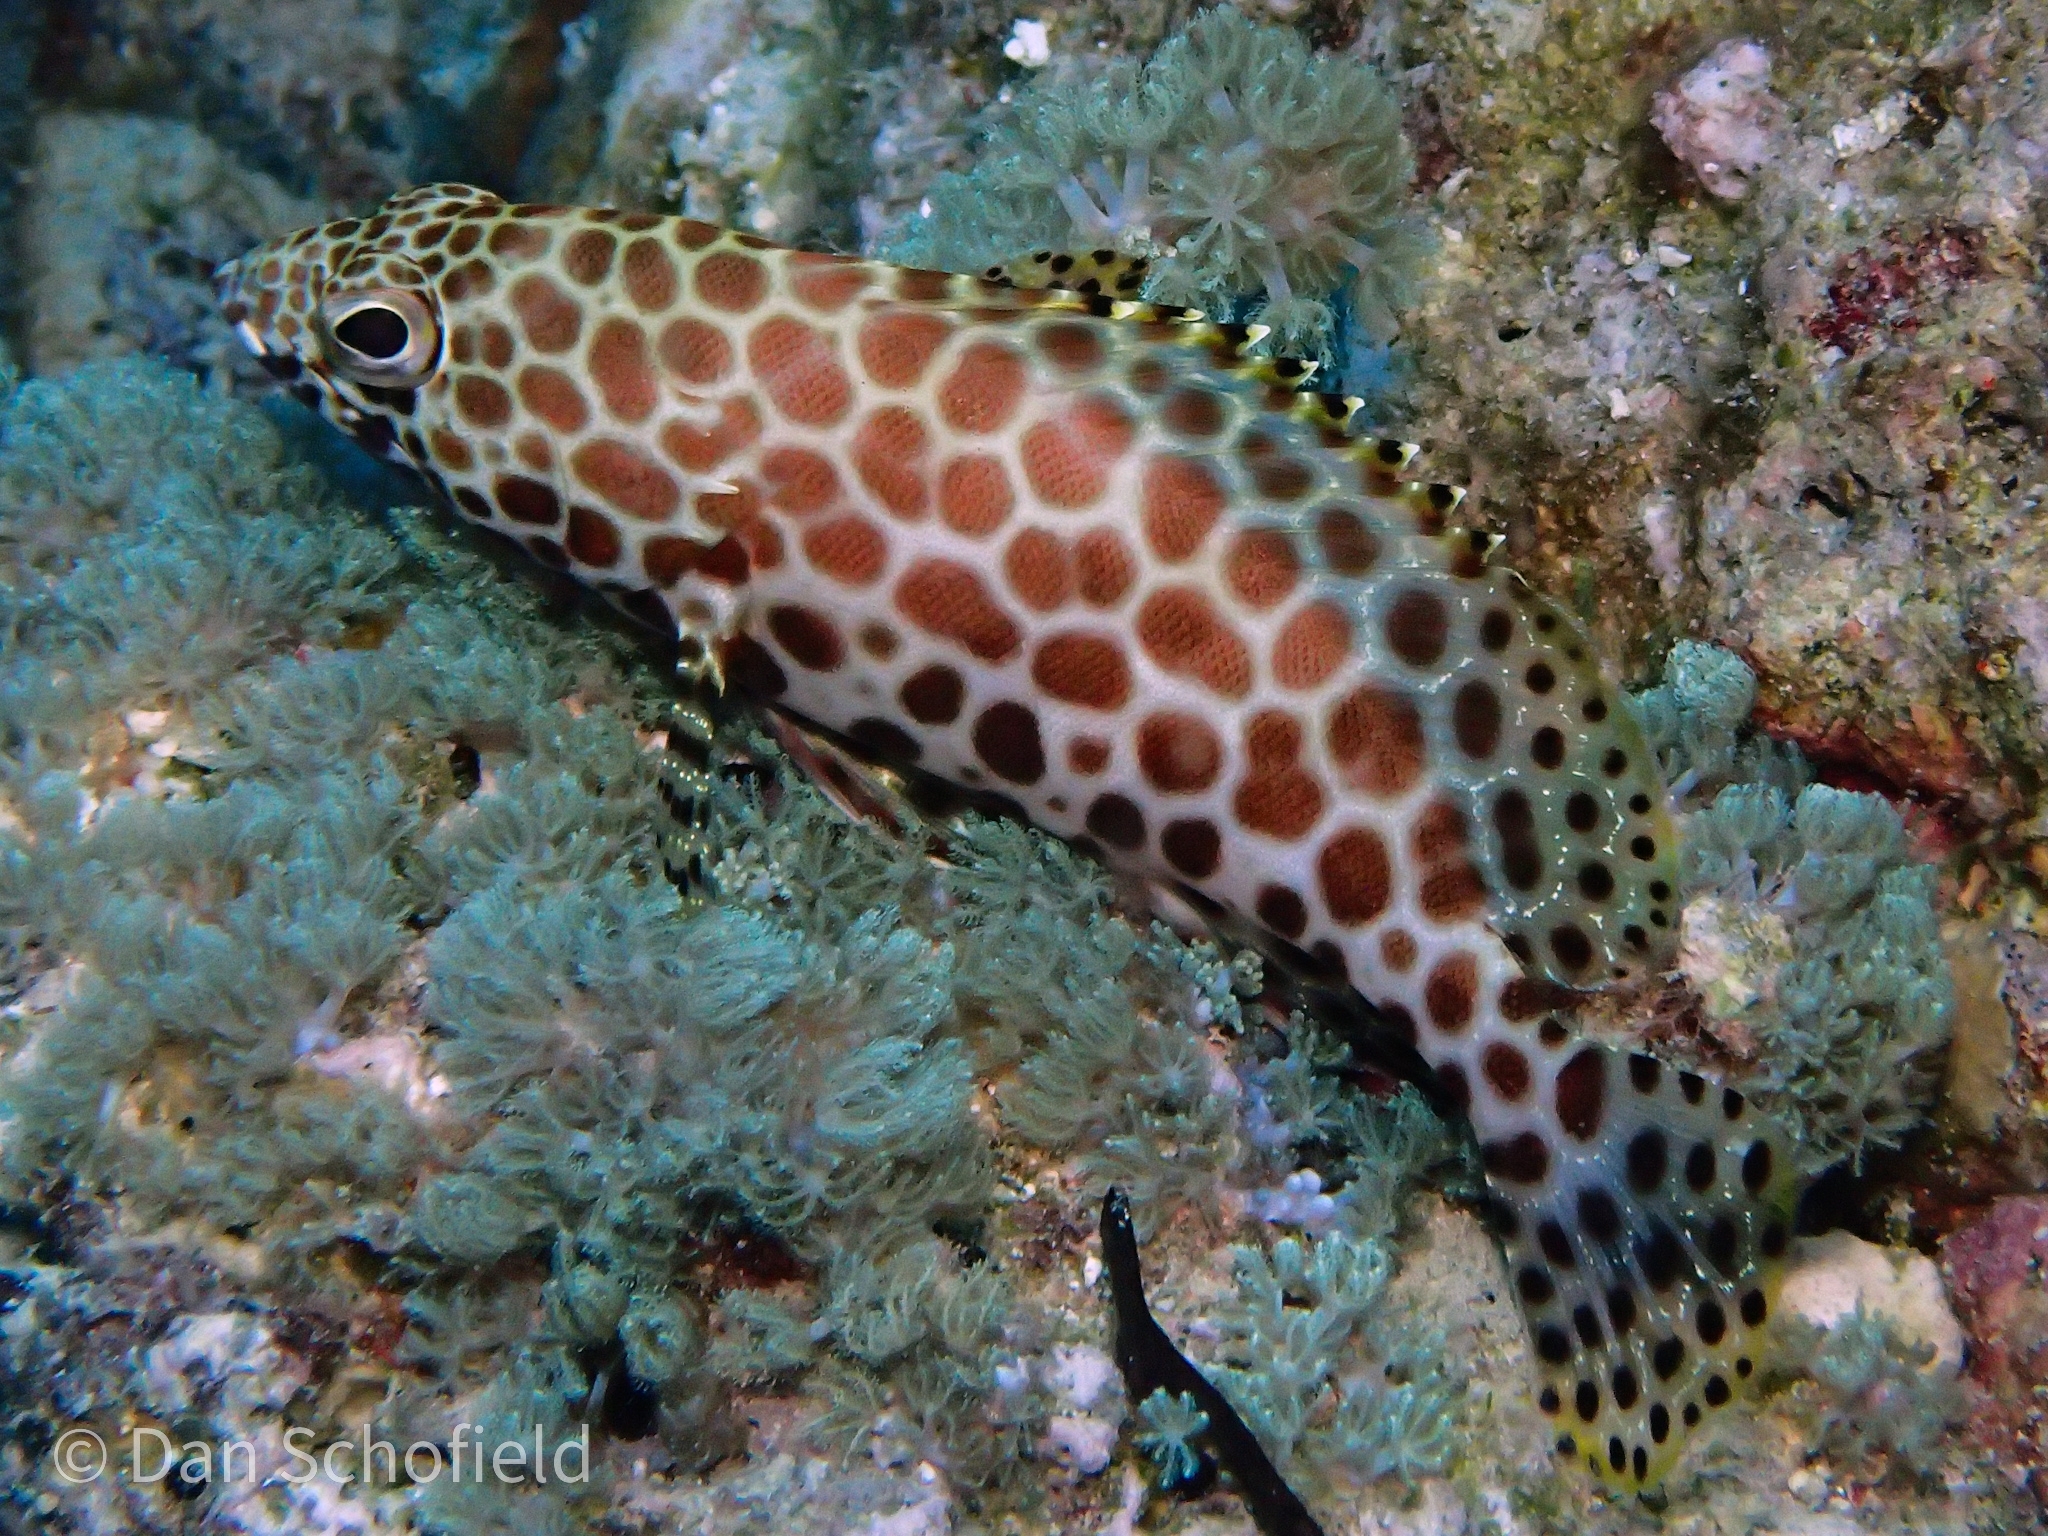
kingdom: Animalia
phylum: Chordata
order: Perciformes
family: Serranidae
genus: Epinephelus
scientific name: Epinephelus merra
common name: Honeycomb grouper
